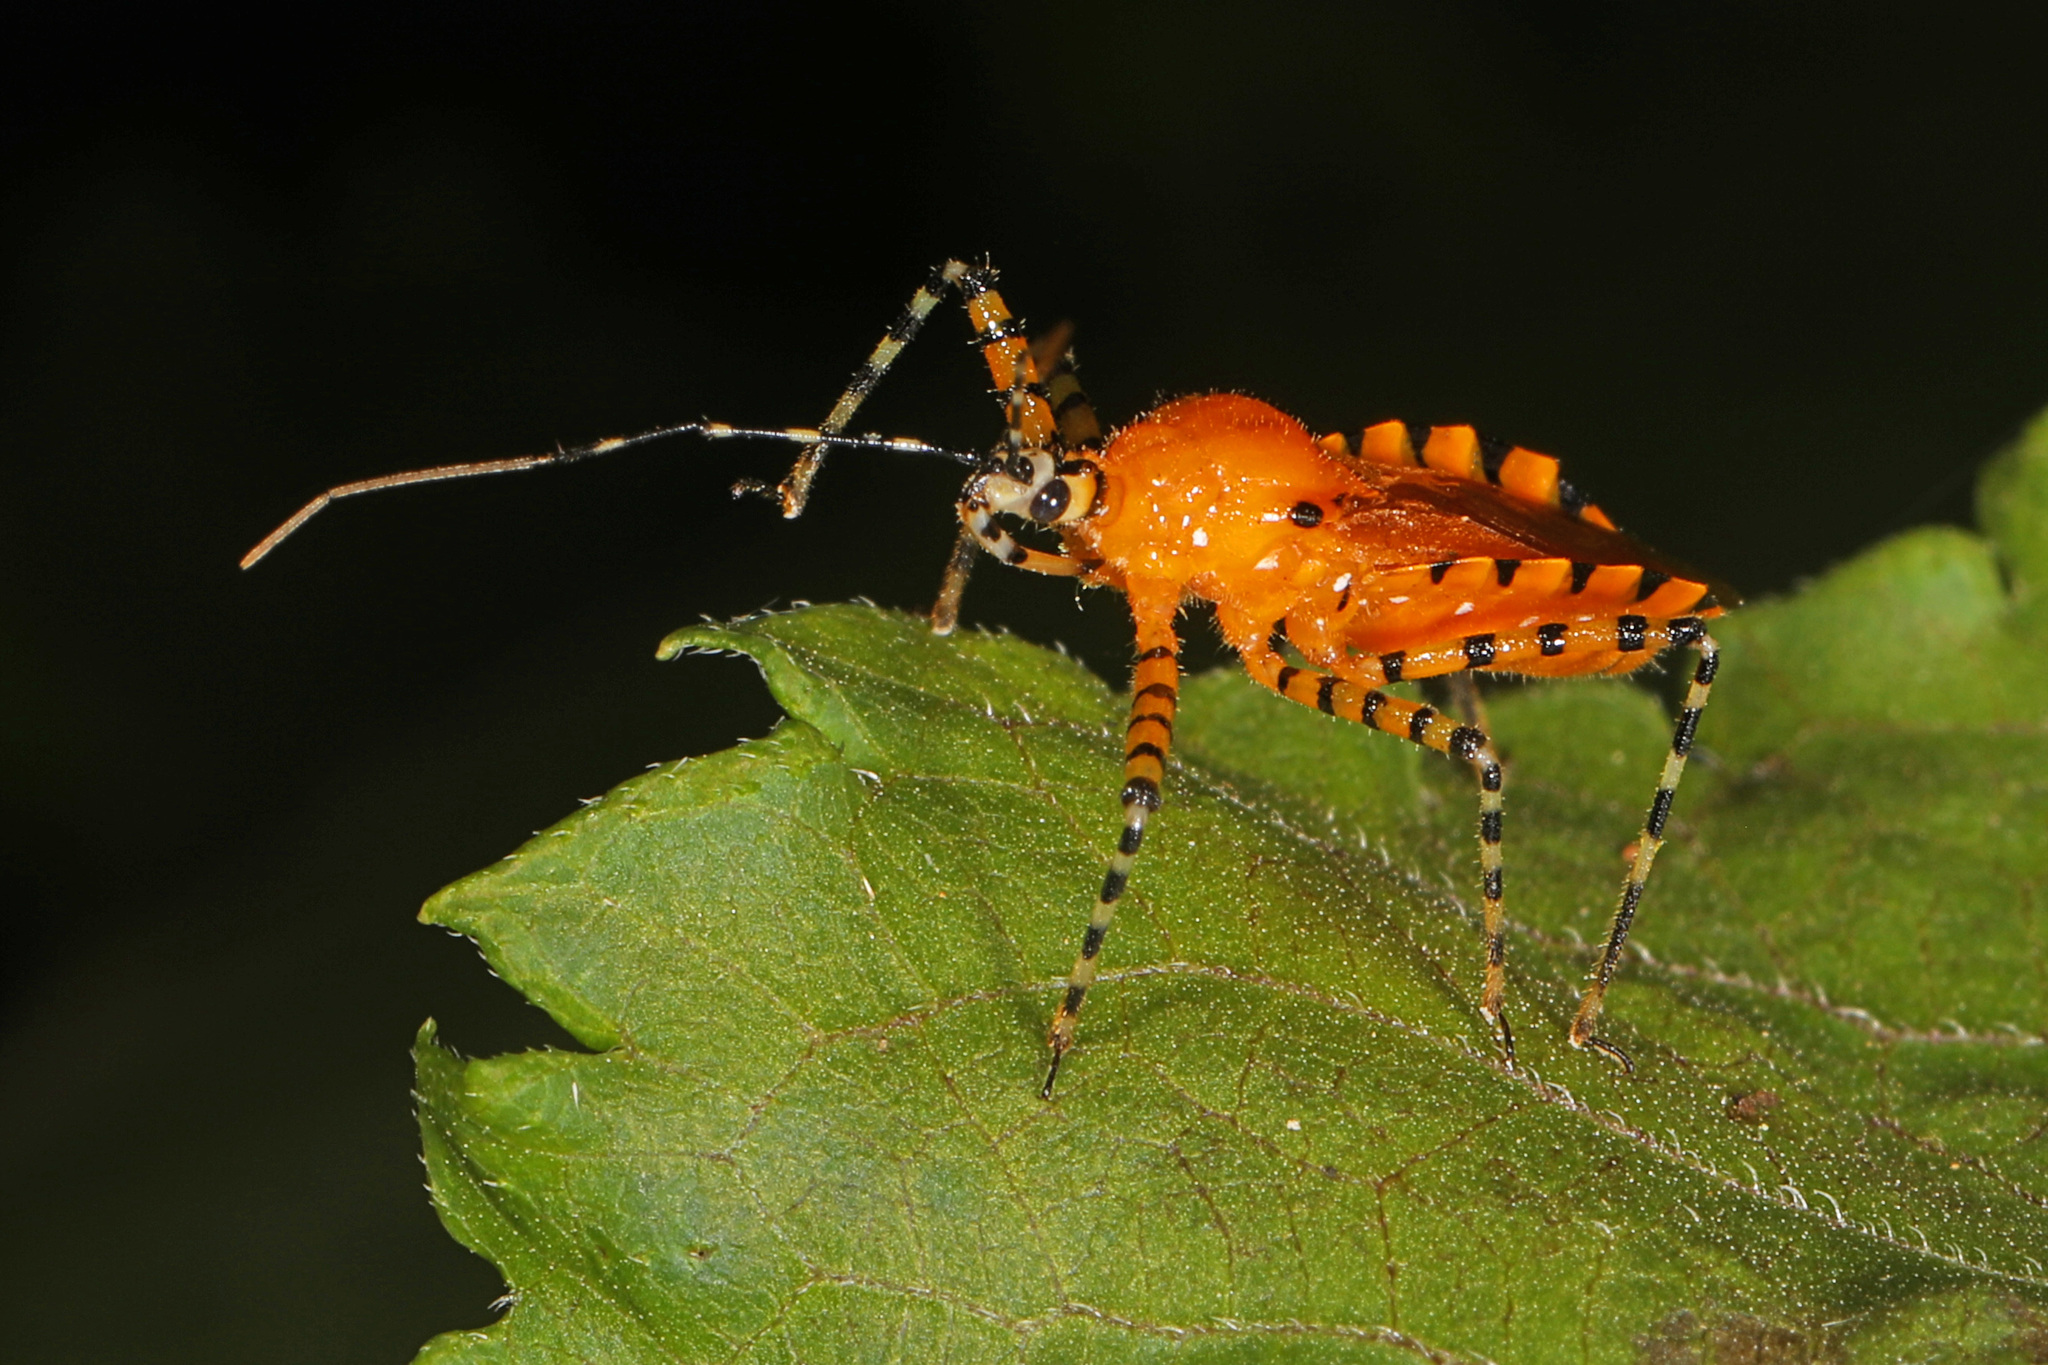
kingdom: Animalia
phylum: Arthropoda
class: Insecta
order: Hemiptera
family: Reduviidae
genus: Pselliopus
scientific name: Pselliopus barberi
